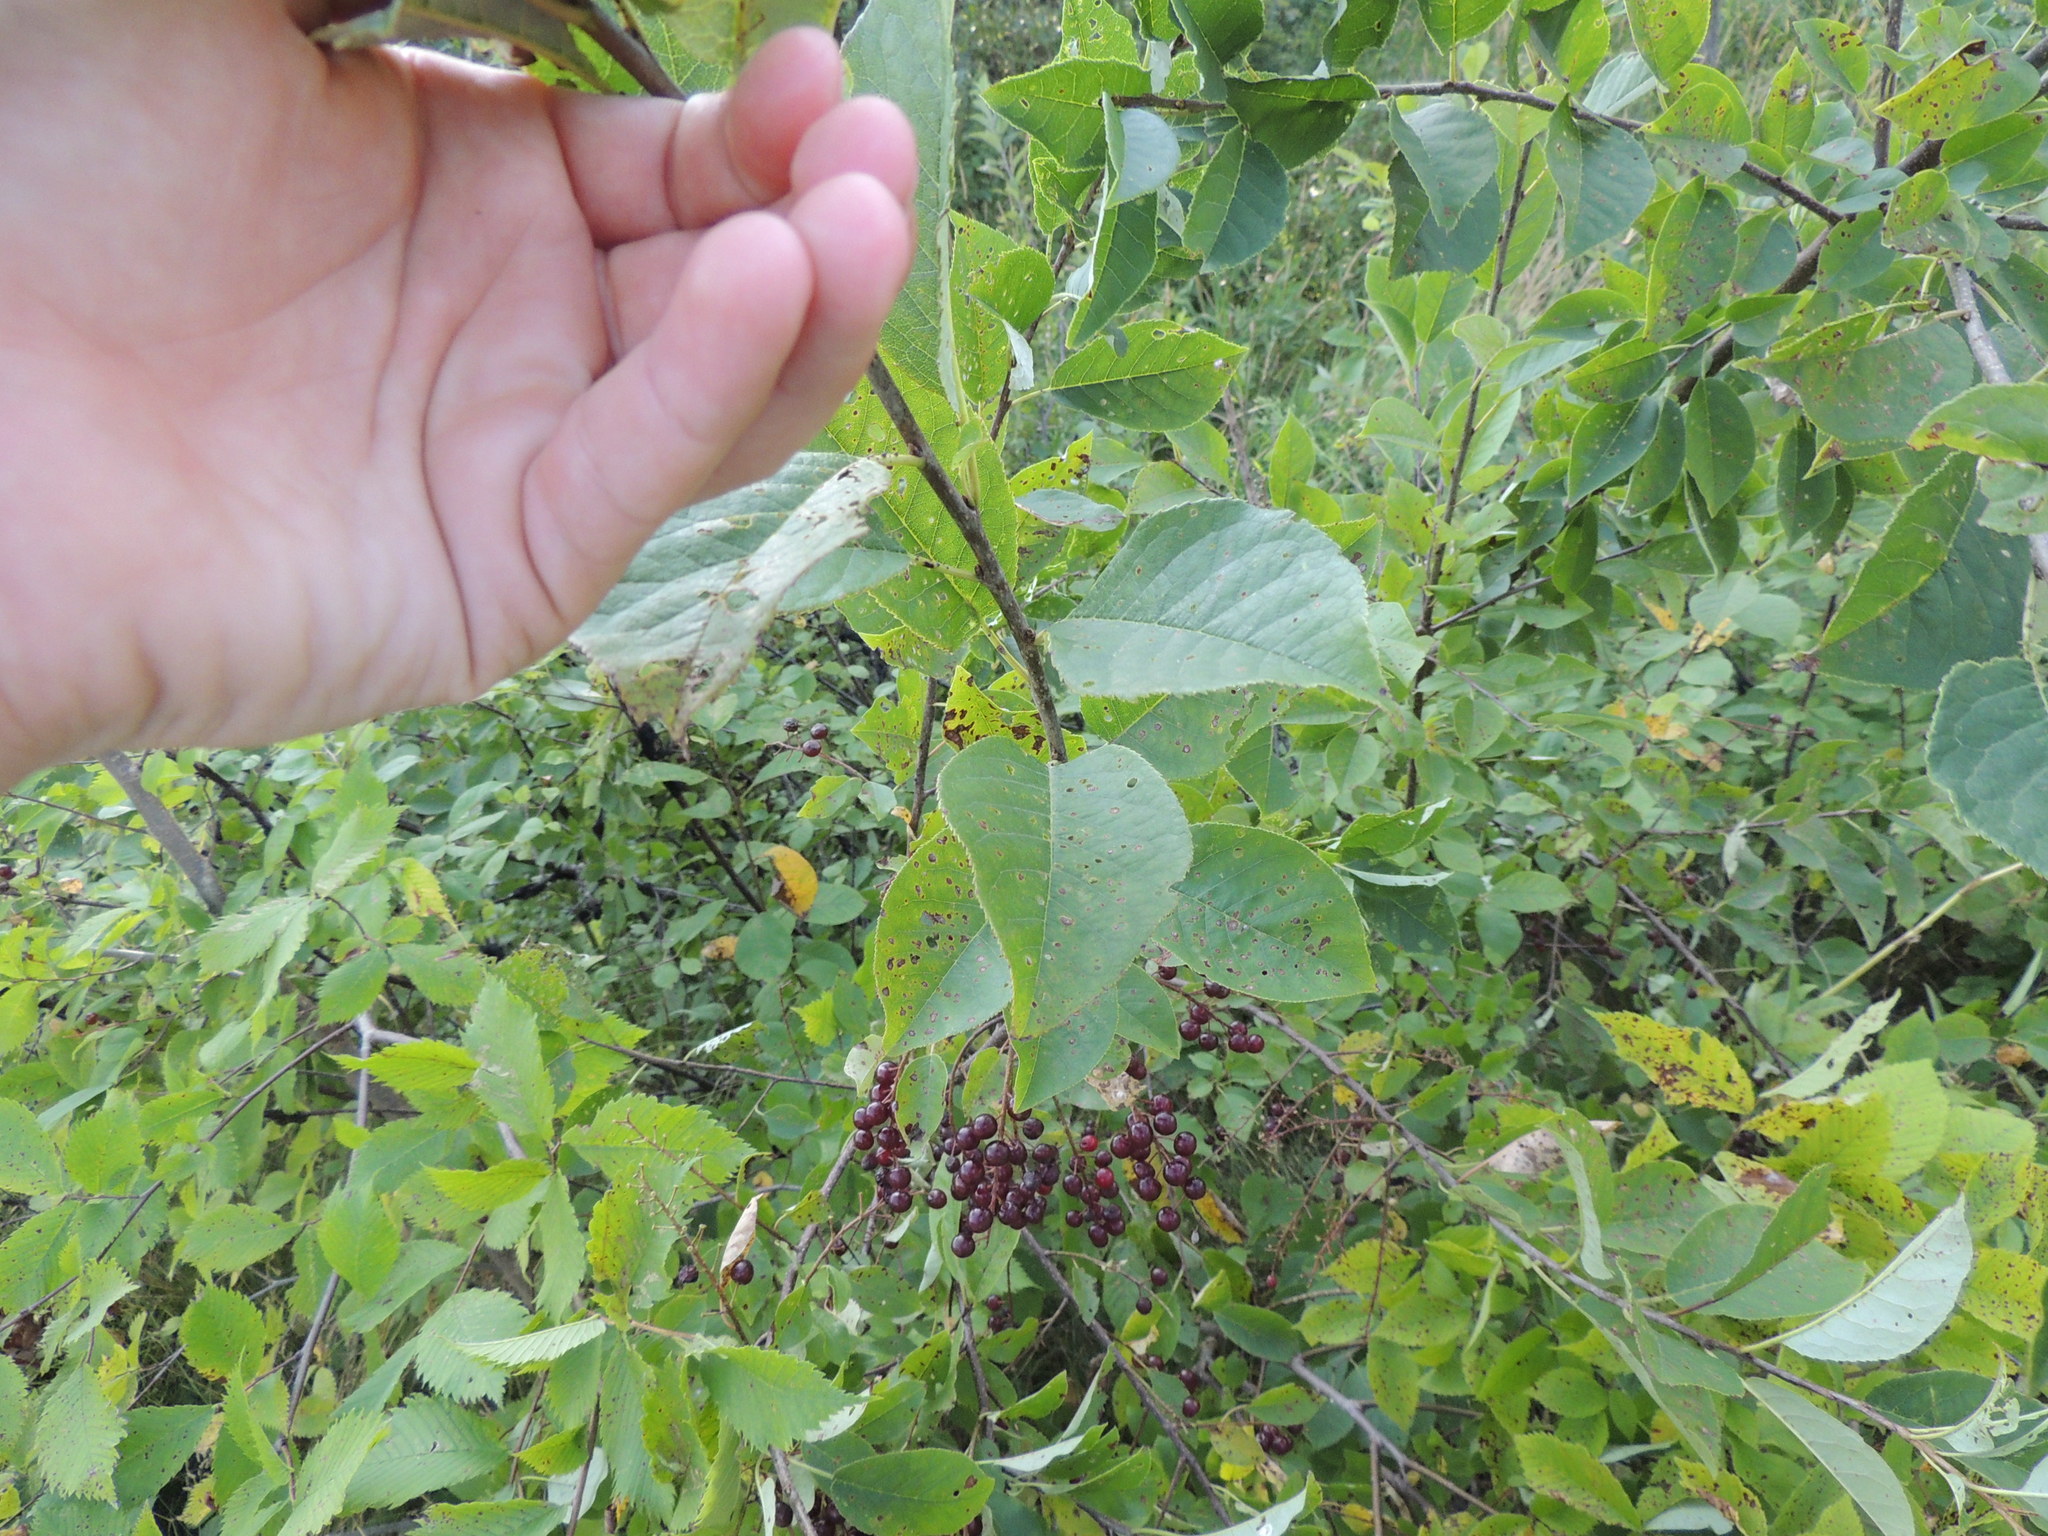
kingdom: Plantae
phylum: Tracheophyta
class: Magnoliopsida
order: Rosales
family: Rosaceae
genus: Prunus
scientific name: Prunus virginiana
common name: Chokecherry
